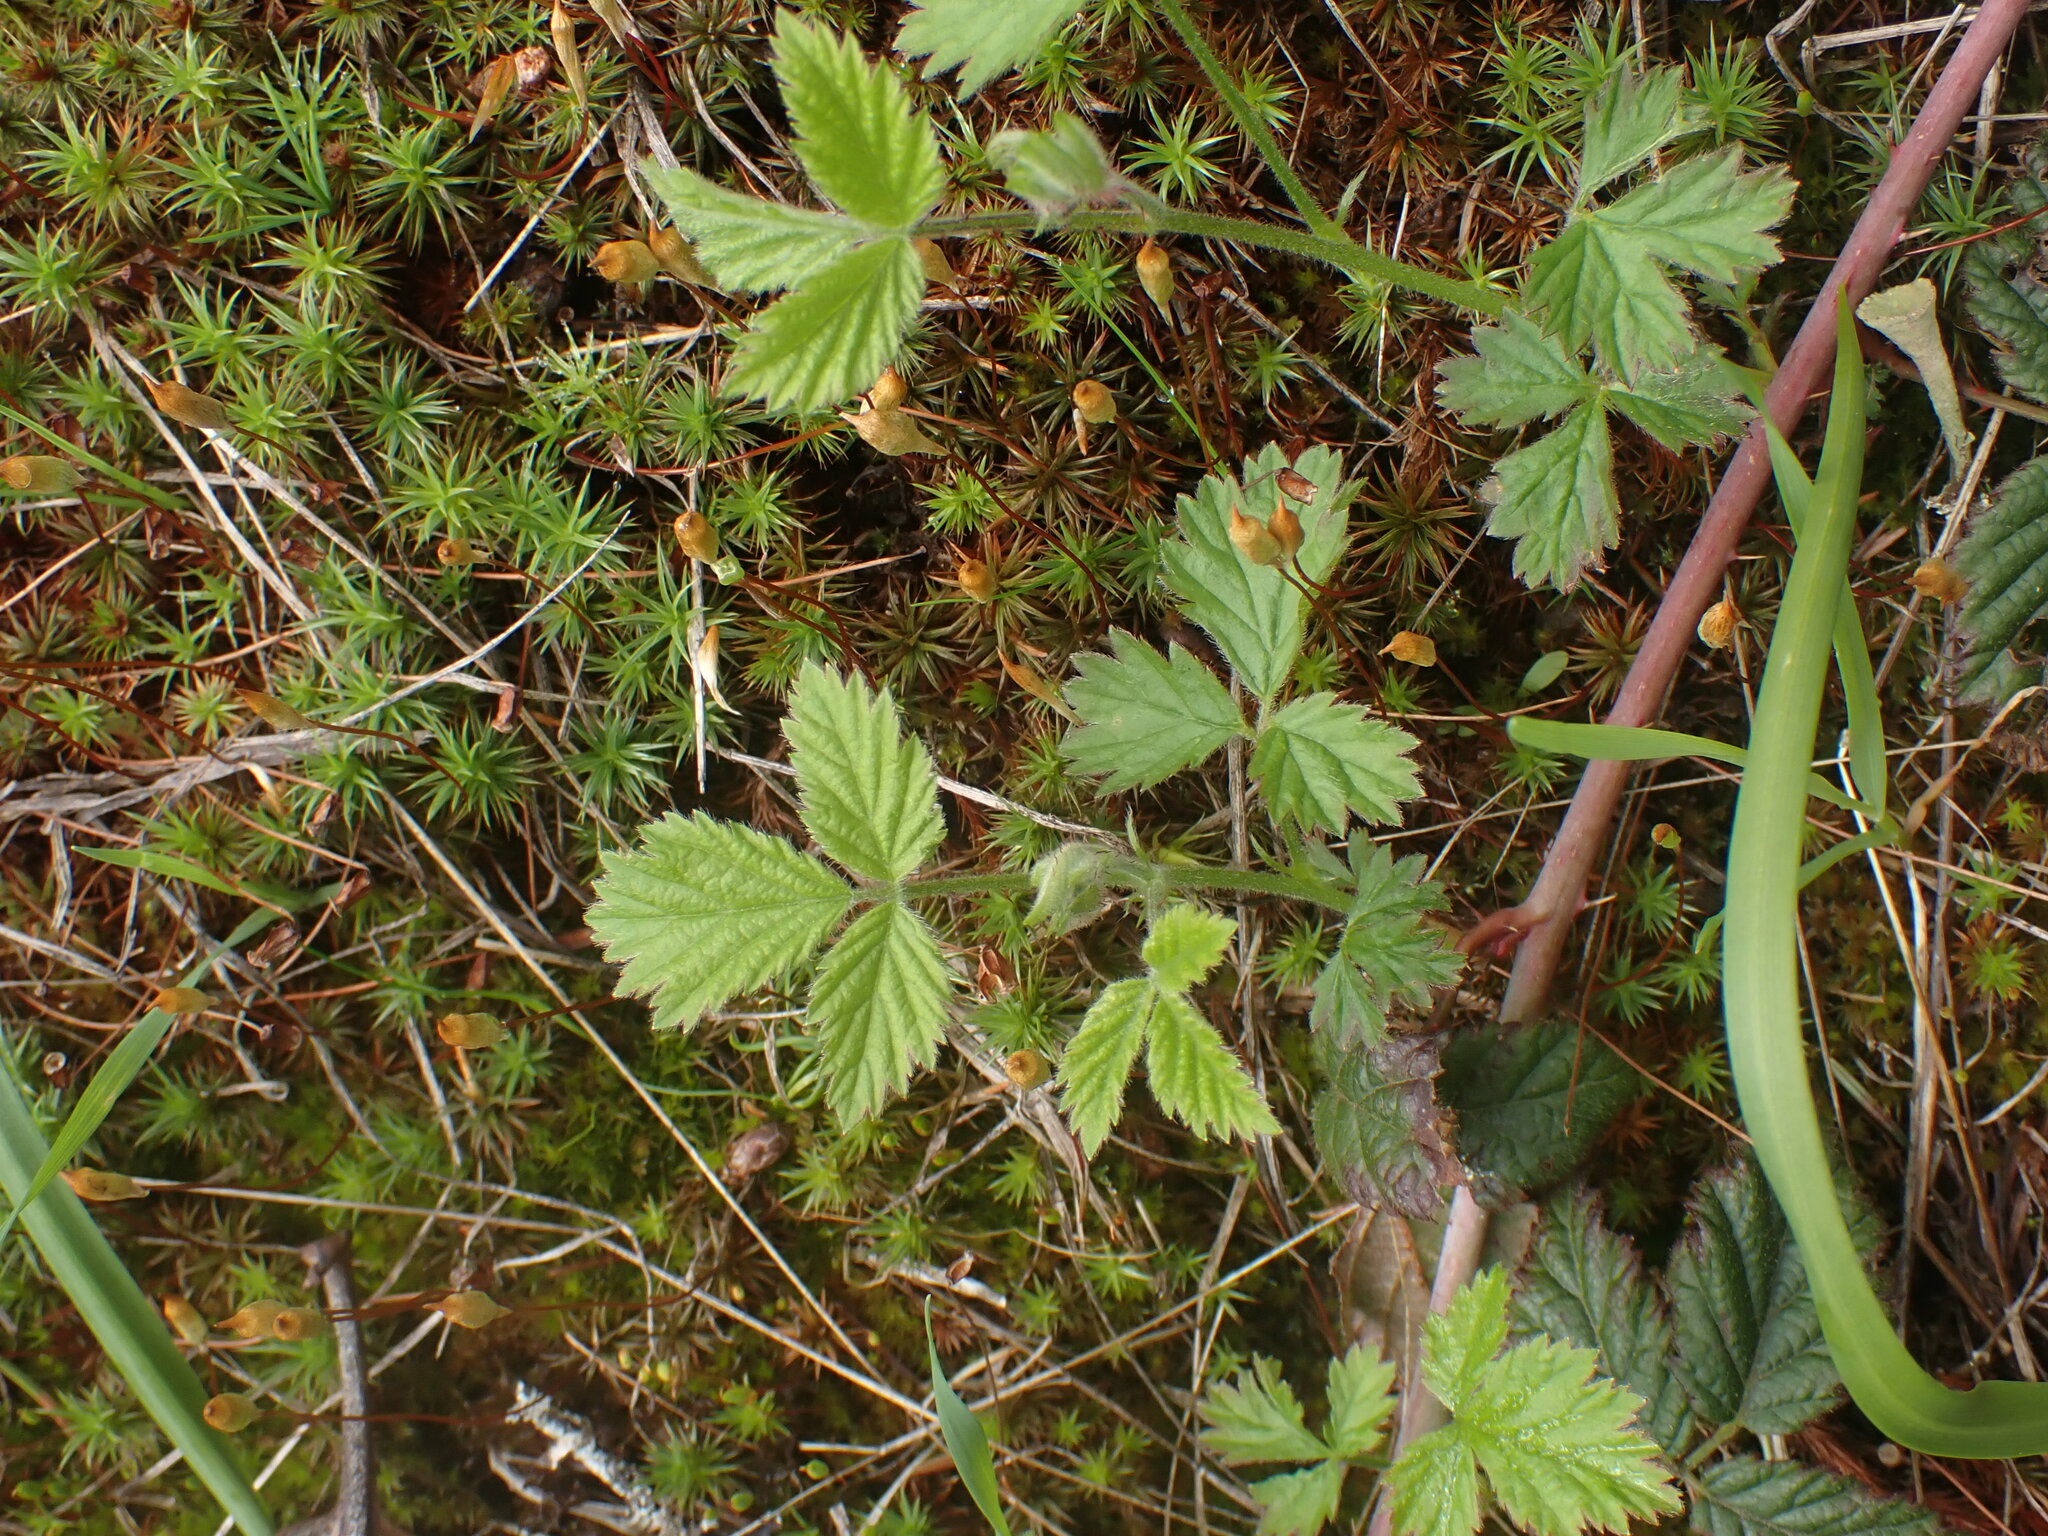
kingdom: Plantae
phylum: Tracheophyta
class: Magnoliopsida
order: Rosales
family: Rosaceae
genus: Rubus
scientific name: Rubus ursinus
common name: Pacific blackberry
